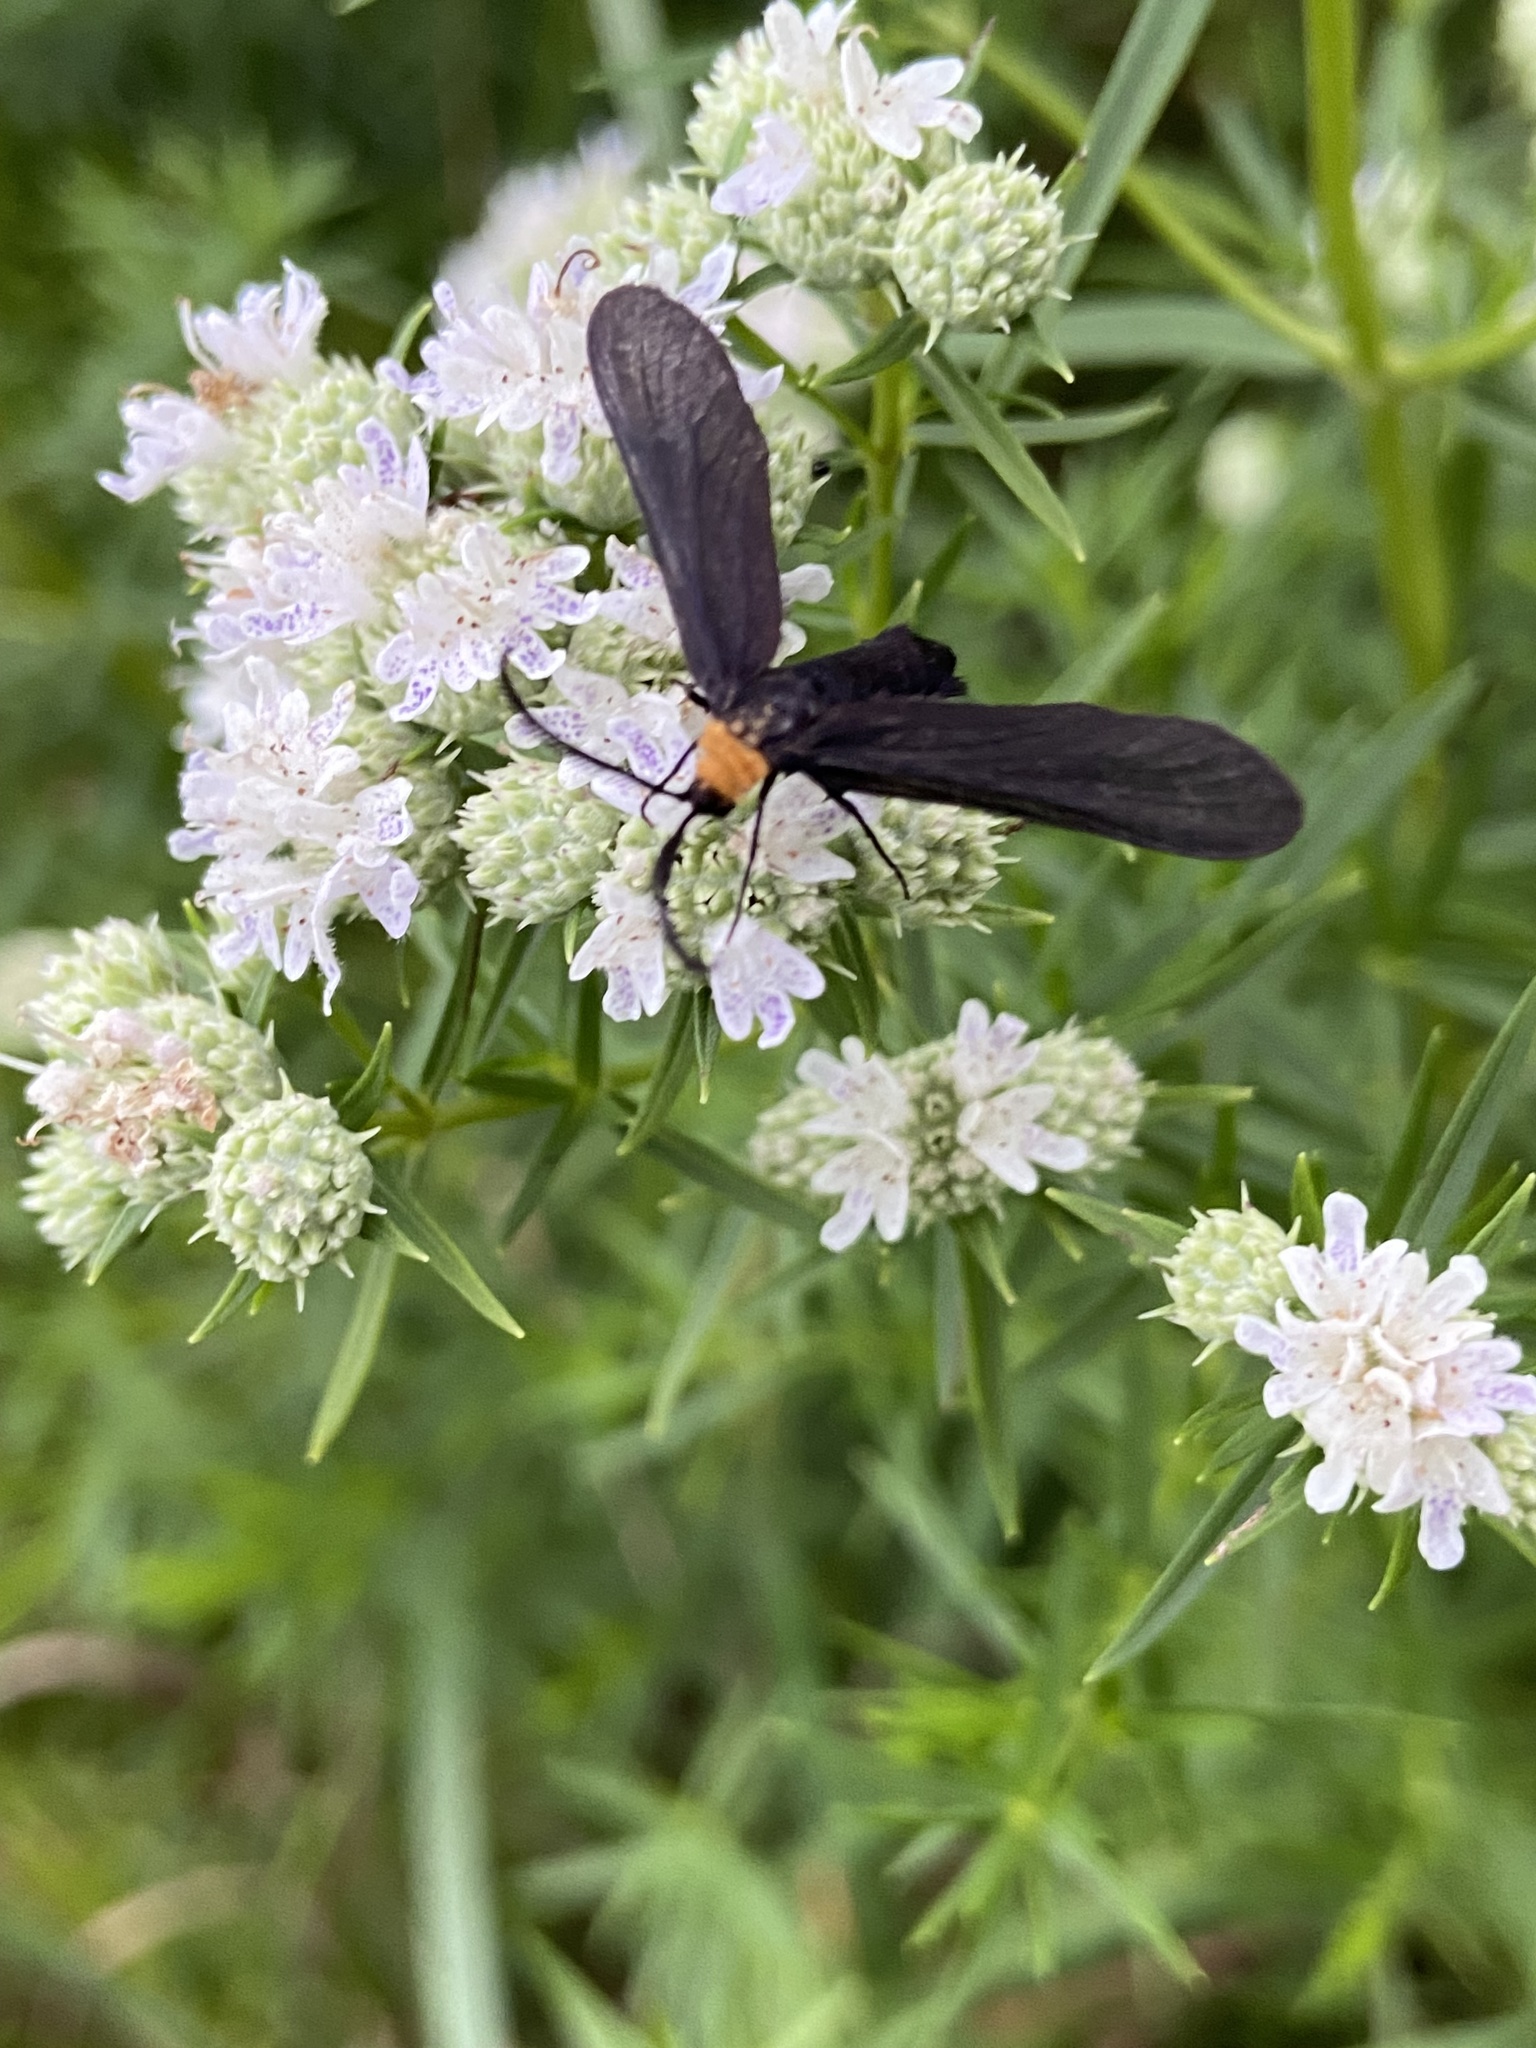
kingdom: Animalia
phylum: Arthropoda
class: Insecta
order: Lepidoptera
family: Zygaenidae
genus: Harrisina
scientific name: Harrisina americana
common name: Grapeleaf skeletonizer moth
